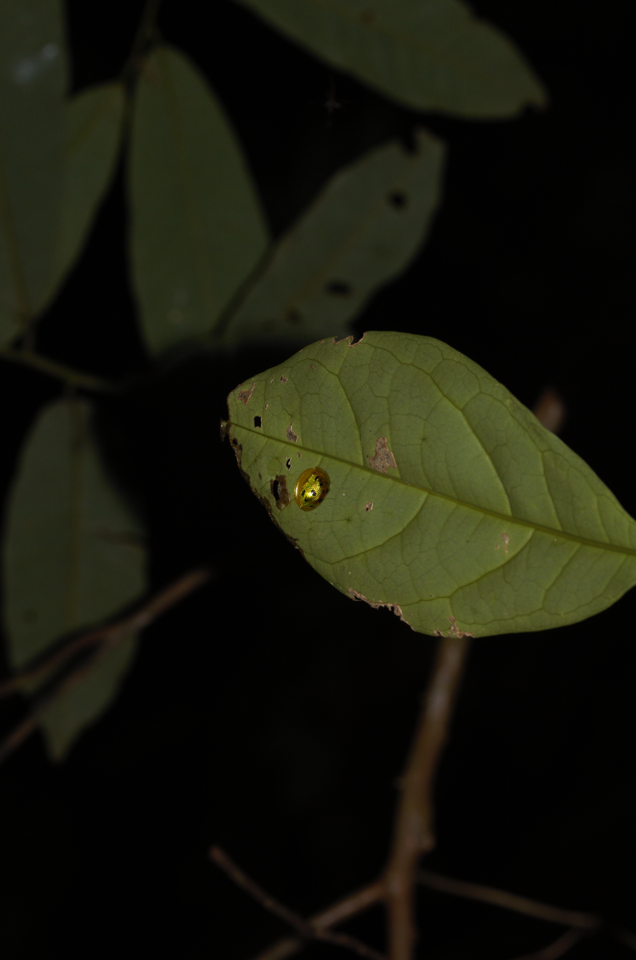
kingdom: Animalia
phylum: Arthropoda
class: Insecta
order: Coleoptera
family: Chrysomelidae
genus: Coptocycla
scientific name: Coptocycla undecimpunctata
